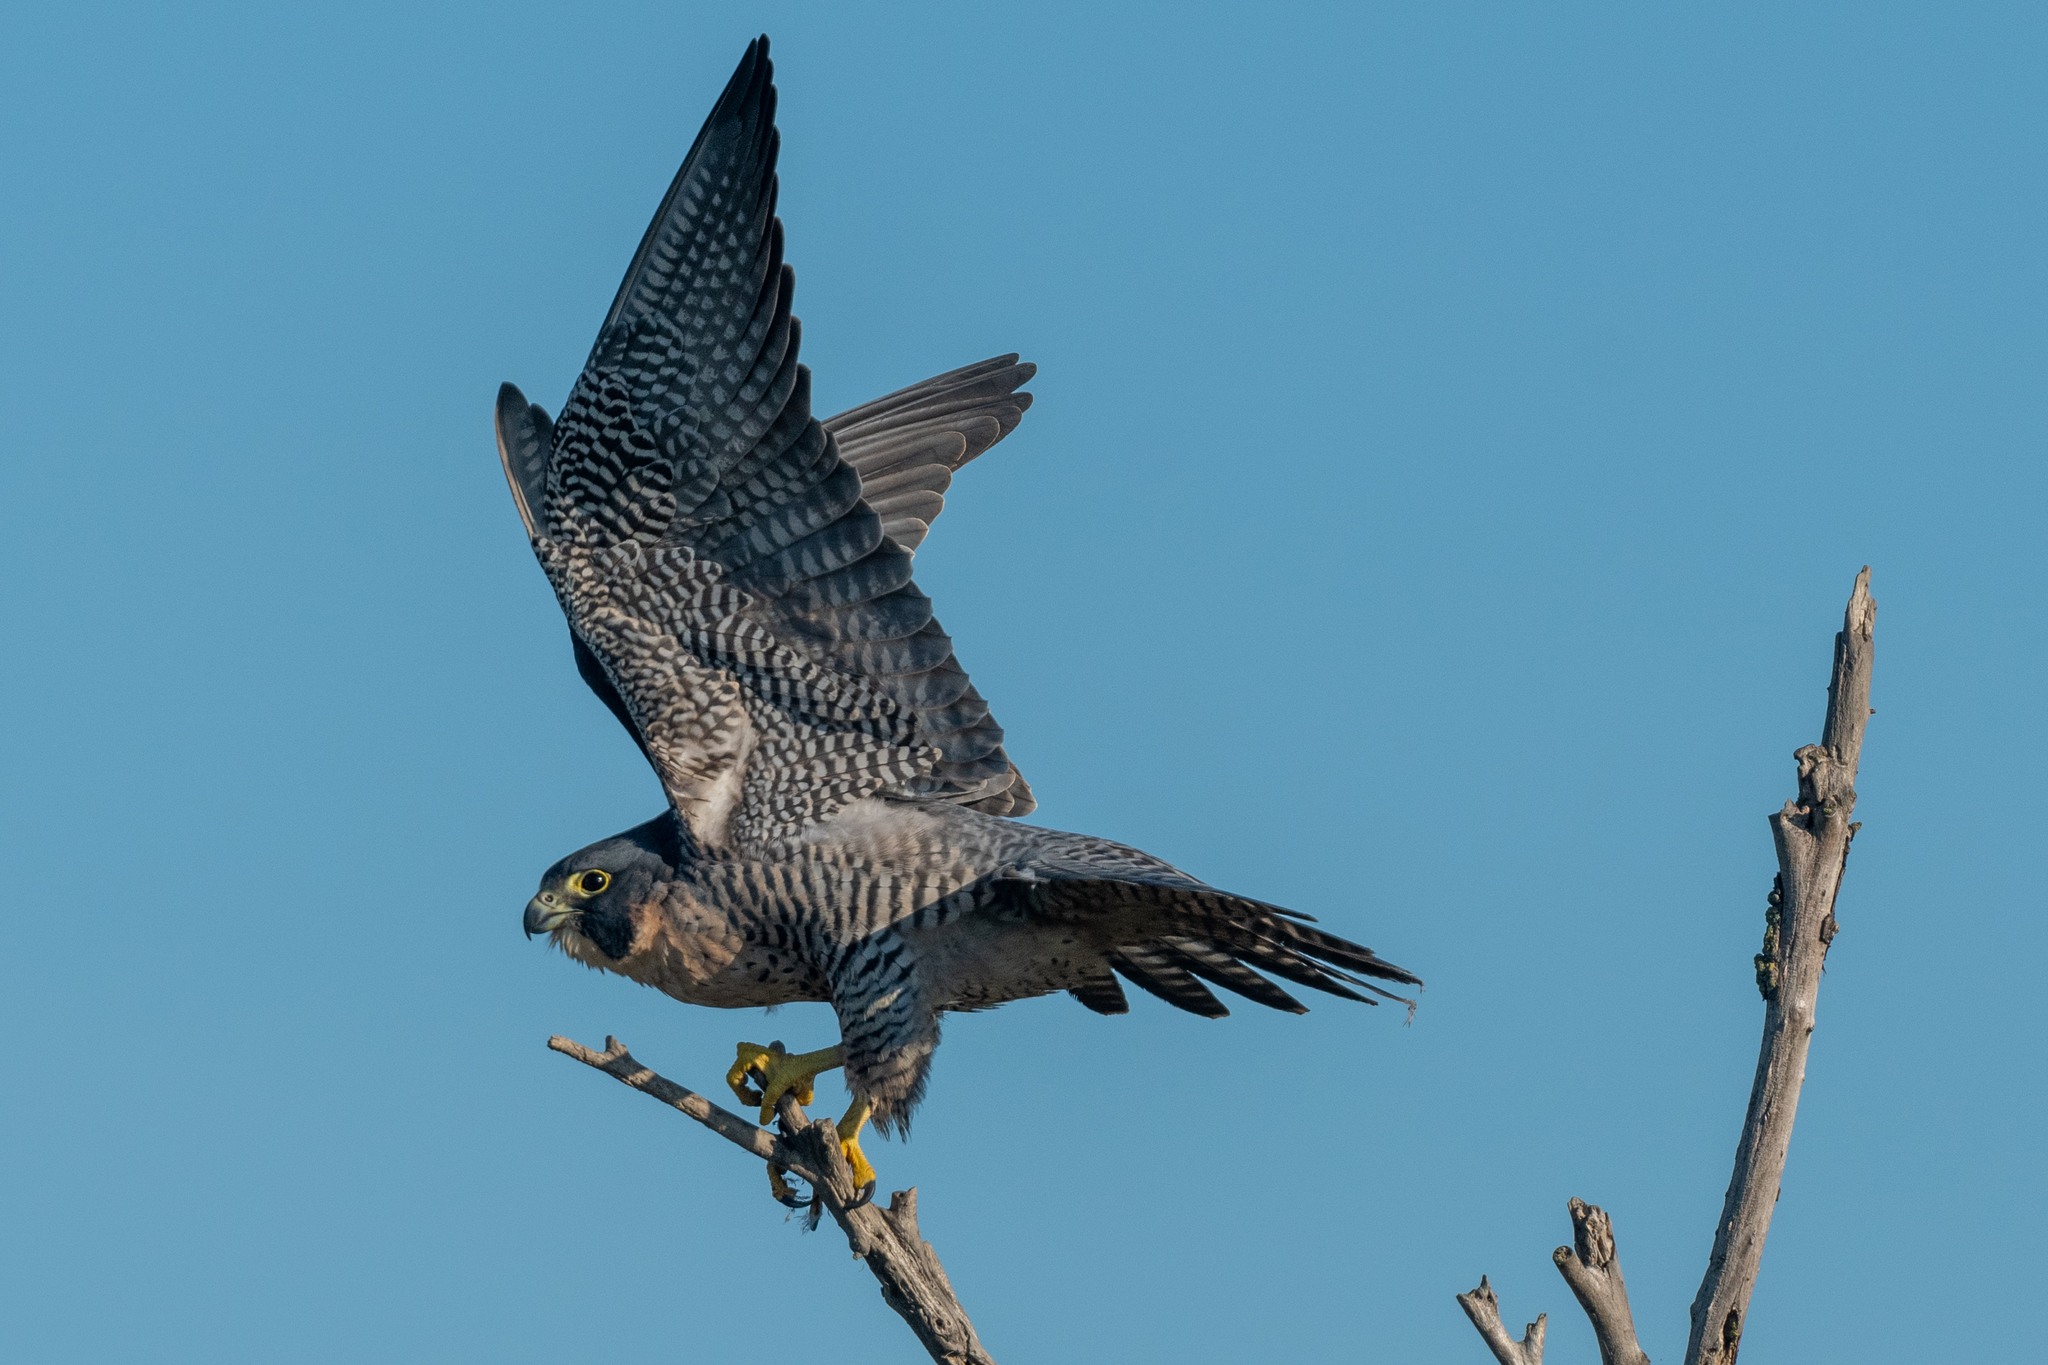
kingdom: Animalia
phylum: Chordata
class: Aves
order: Falconiformes
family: Falconidae
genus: Falco
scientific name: Falco peregrinus
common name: Peregrine falcon
